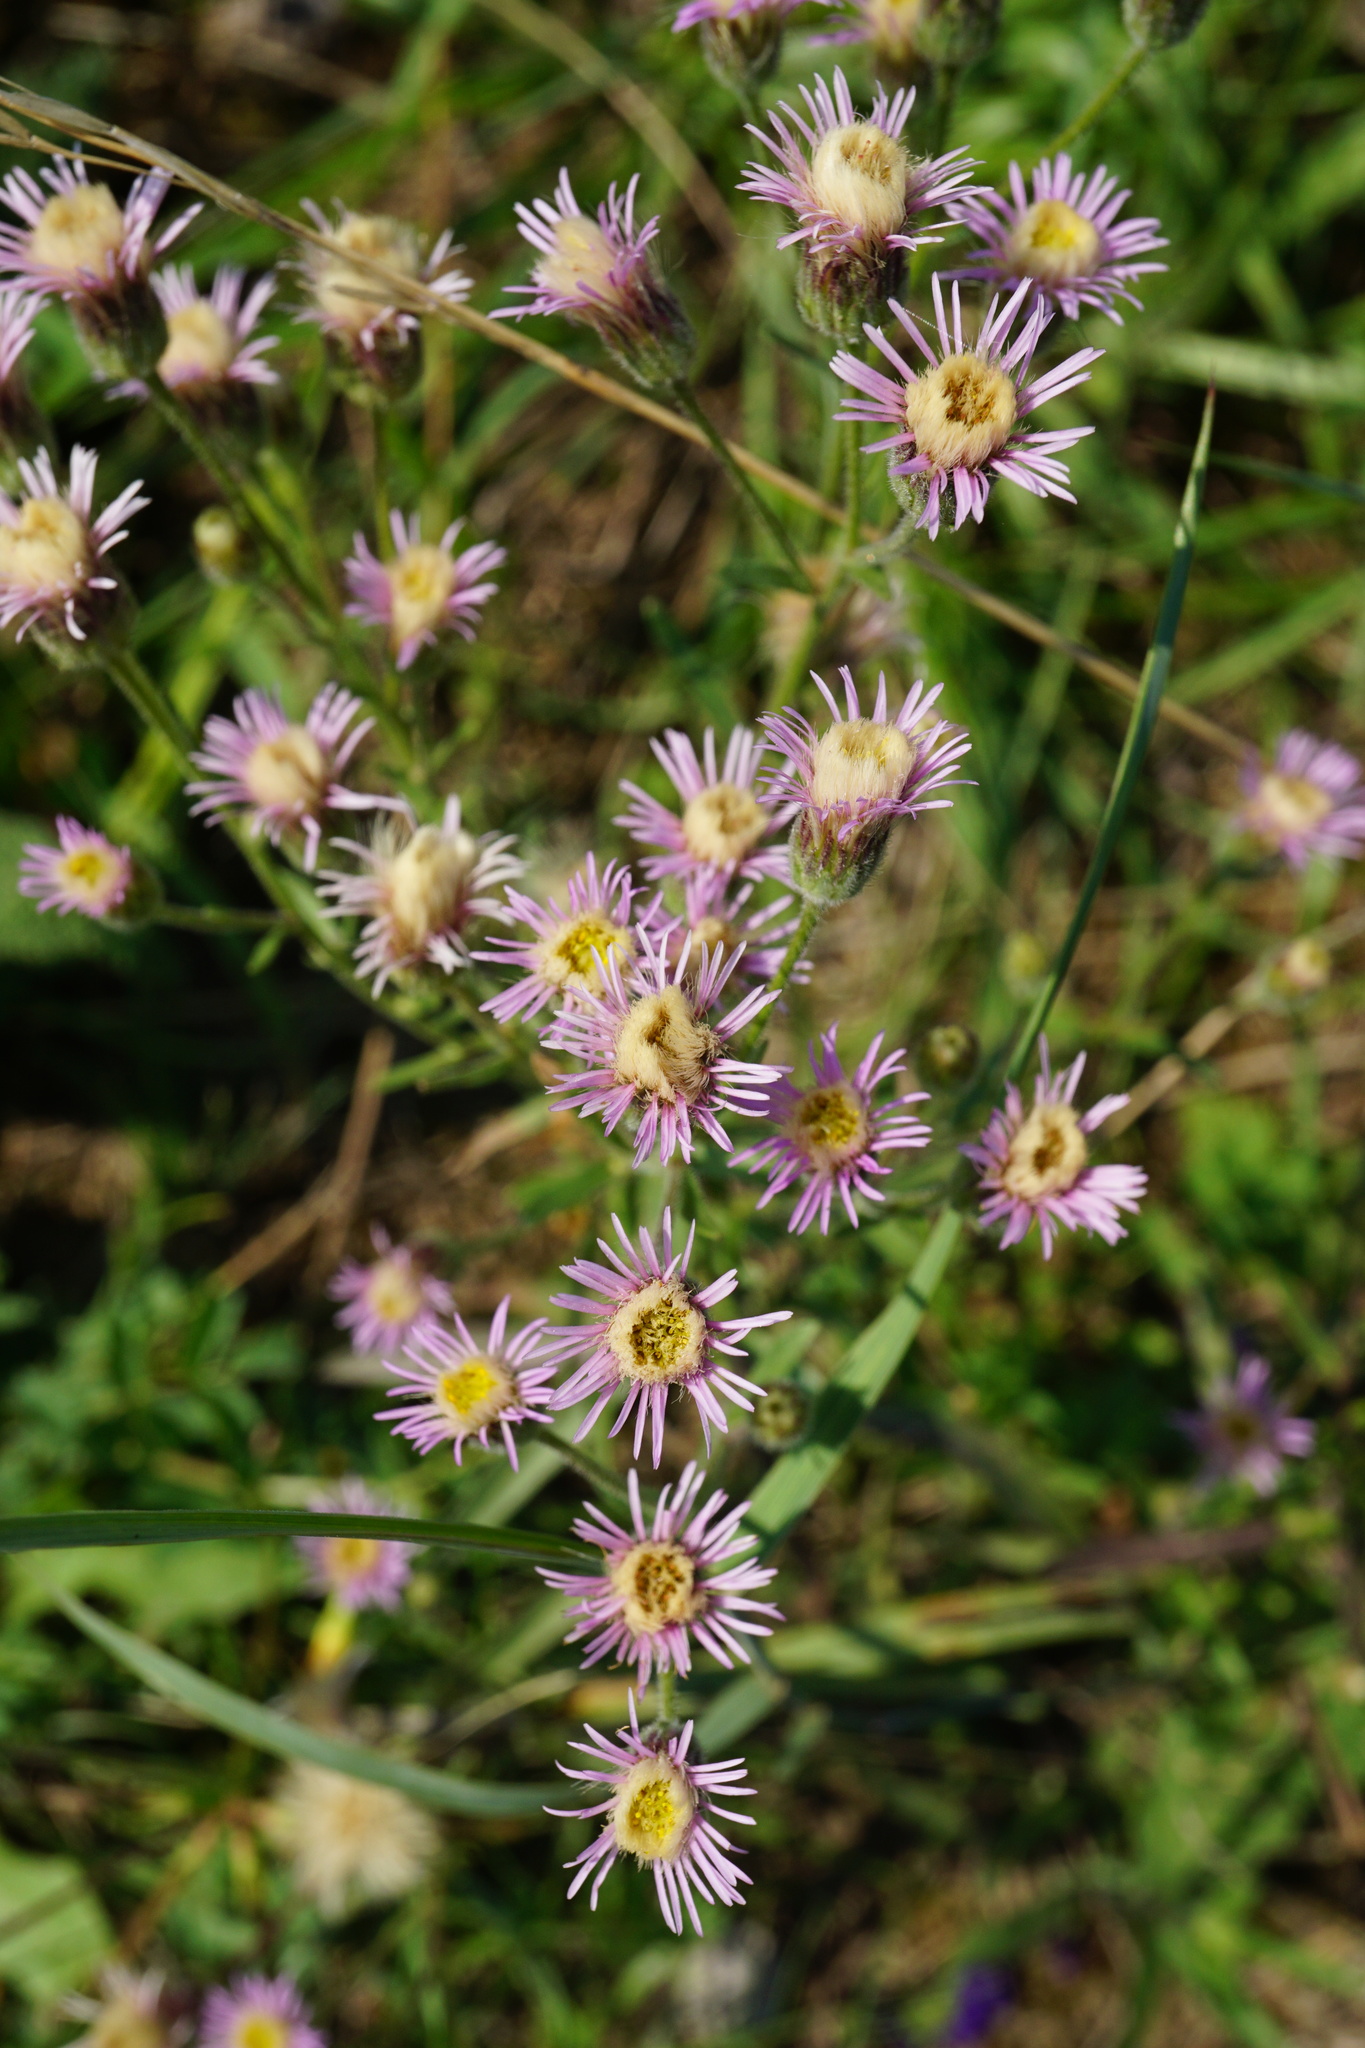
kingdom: Plantae
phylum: Tracheophyta
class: Magnoliopsida
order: Asterales
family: Asteraceae
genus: Erigeron
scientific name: Erigeron acris
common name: Blue fleabane
